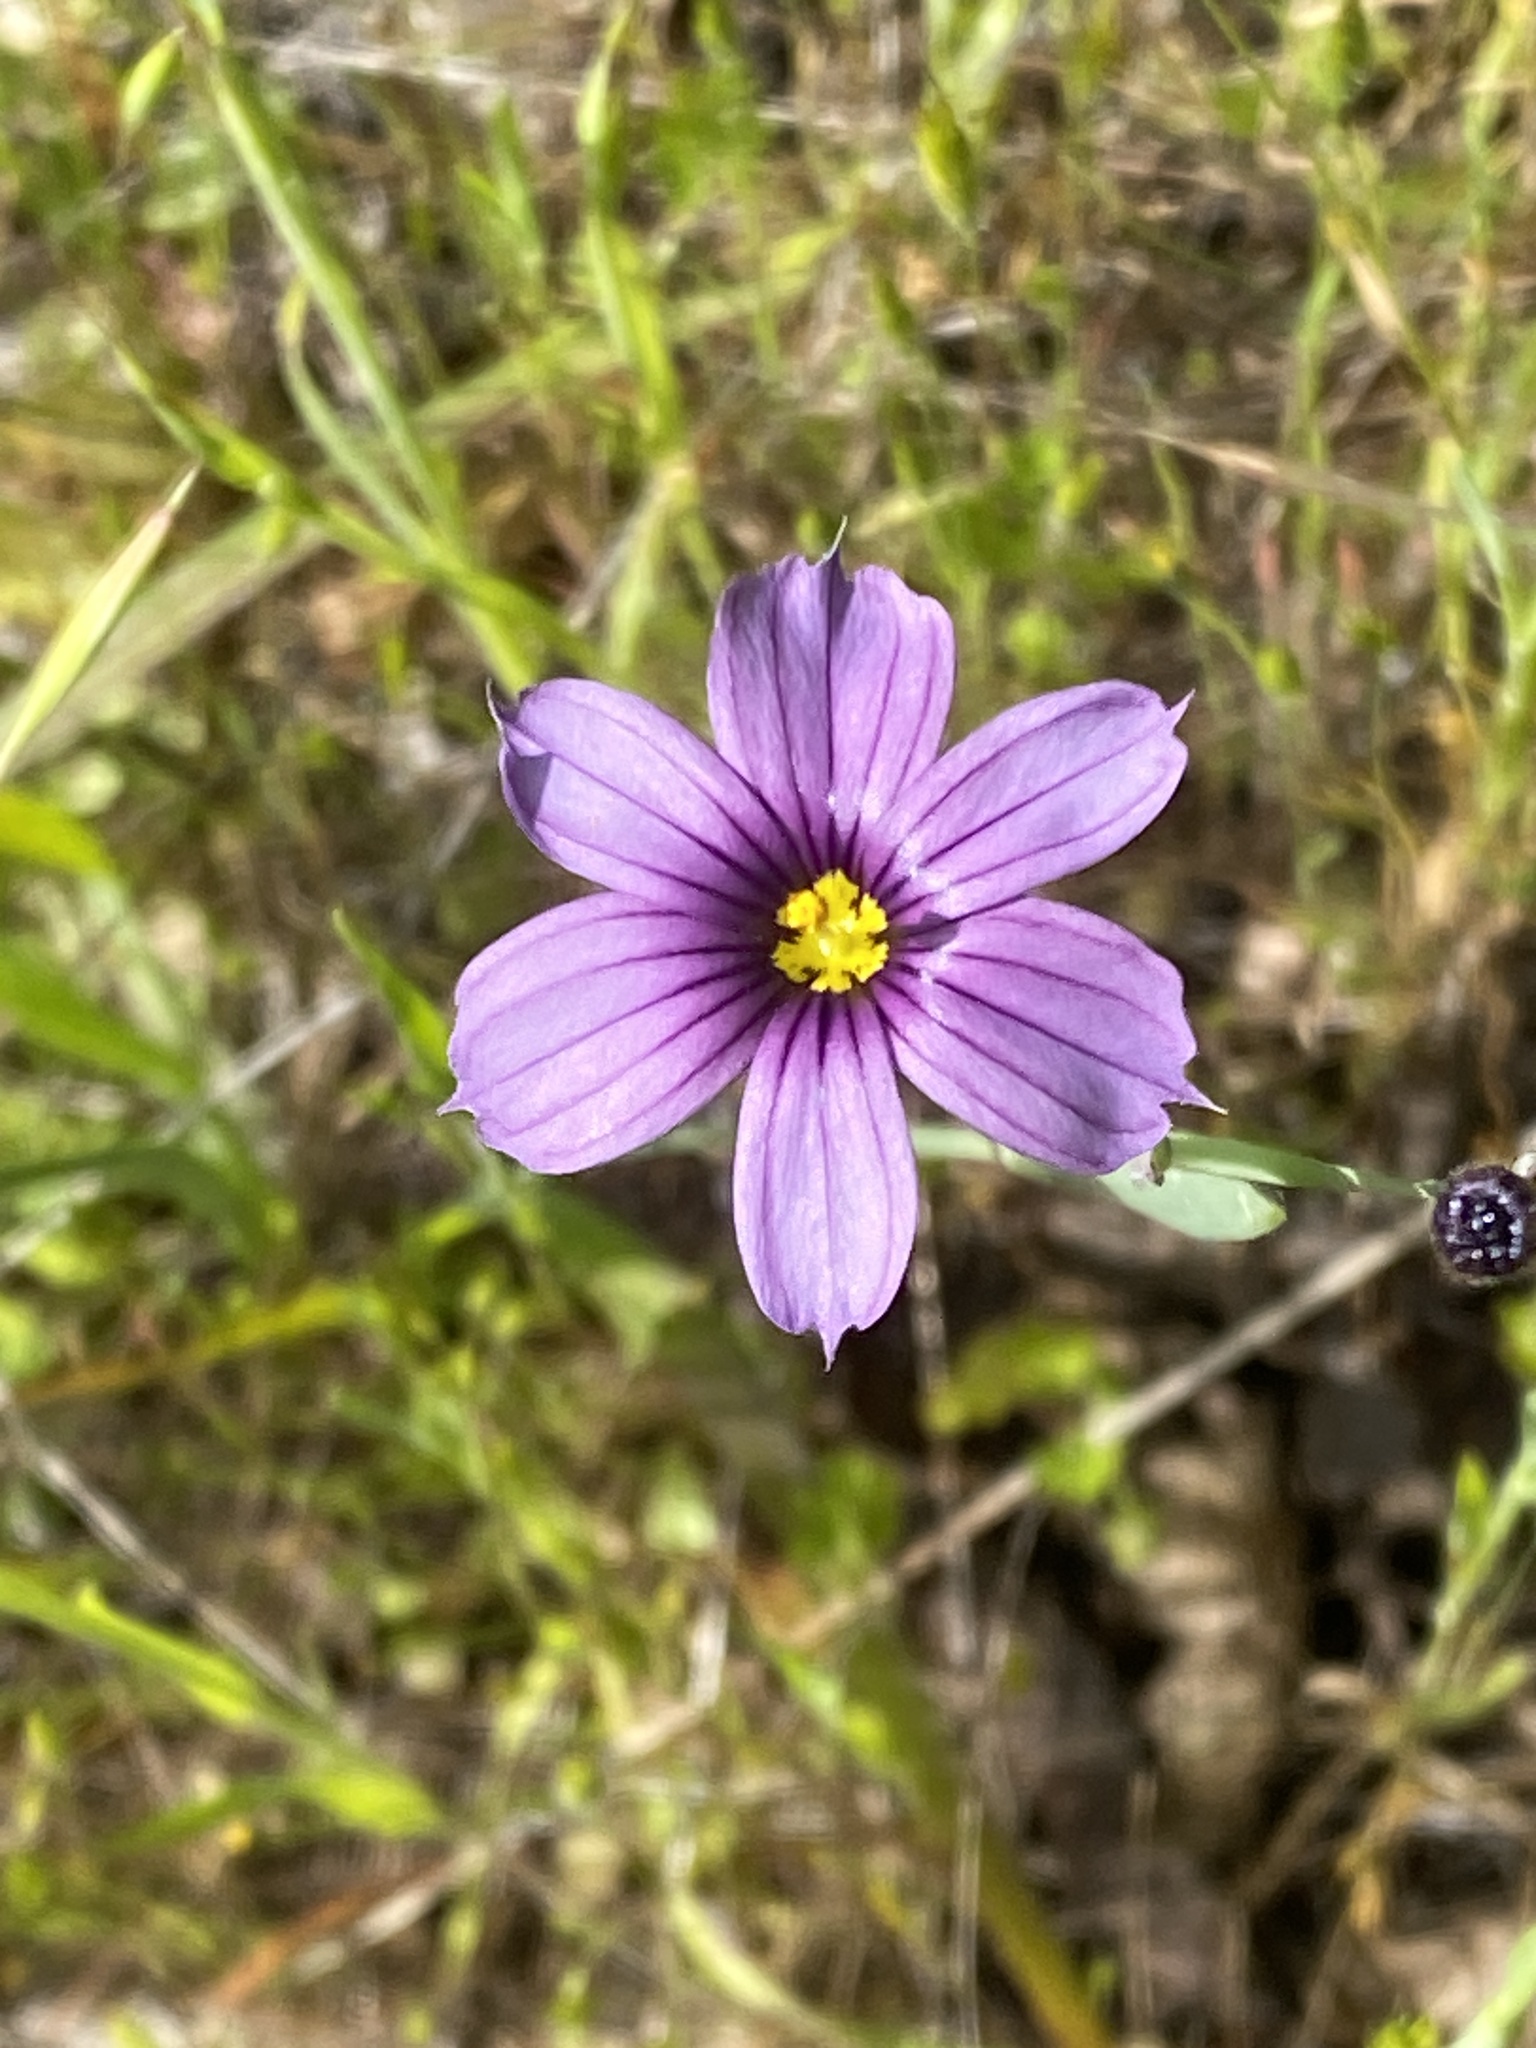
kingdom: Plantae
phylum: Tracheophyta
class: Liliopsida
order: Asparagales
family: Iridaceae
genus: Sisyrinchium
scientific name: Sisyrinchium bellum
